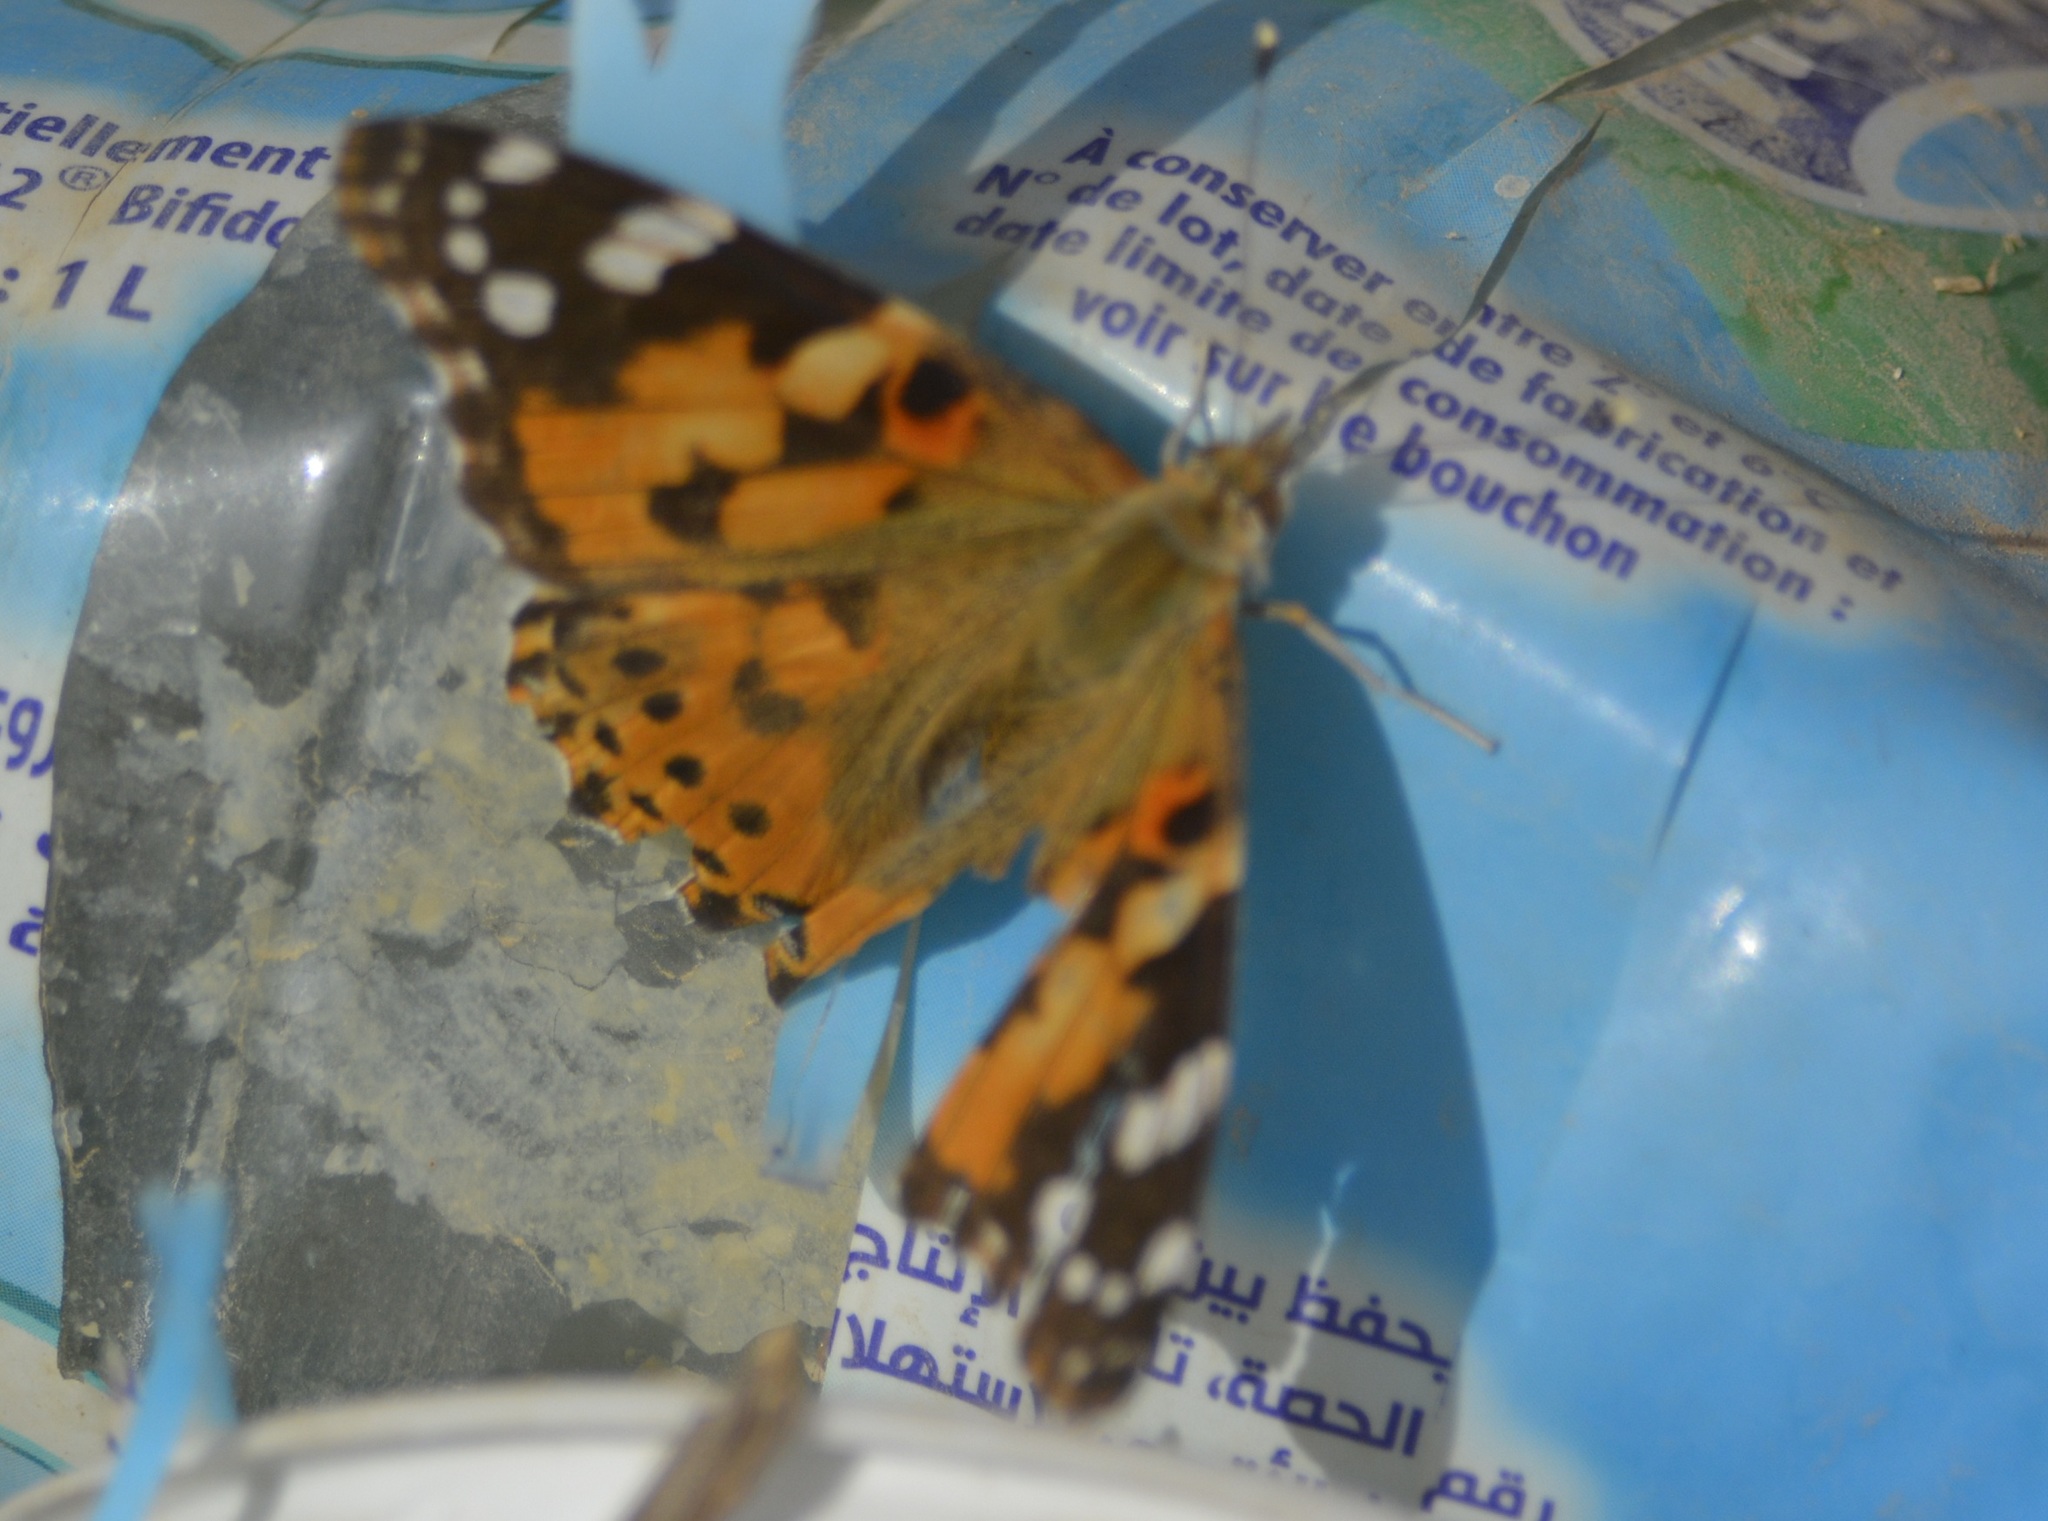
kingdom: Animalia
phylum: Arthropoda
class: Insecta
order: Lepidoptera
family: Nymphalidae
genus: Vanessa
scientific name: Vanessa cardui
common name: Painted lady
